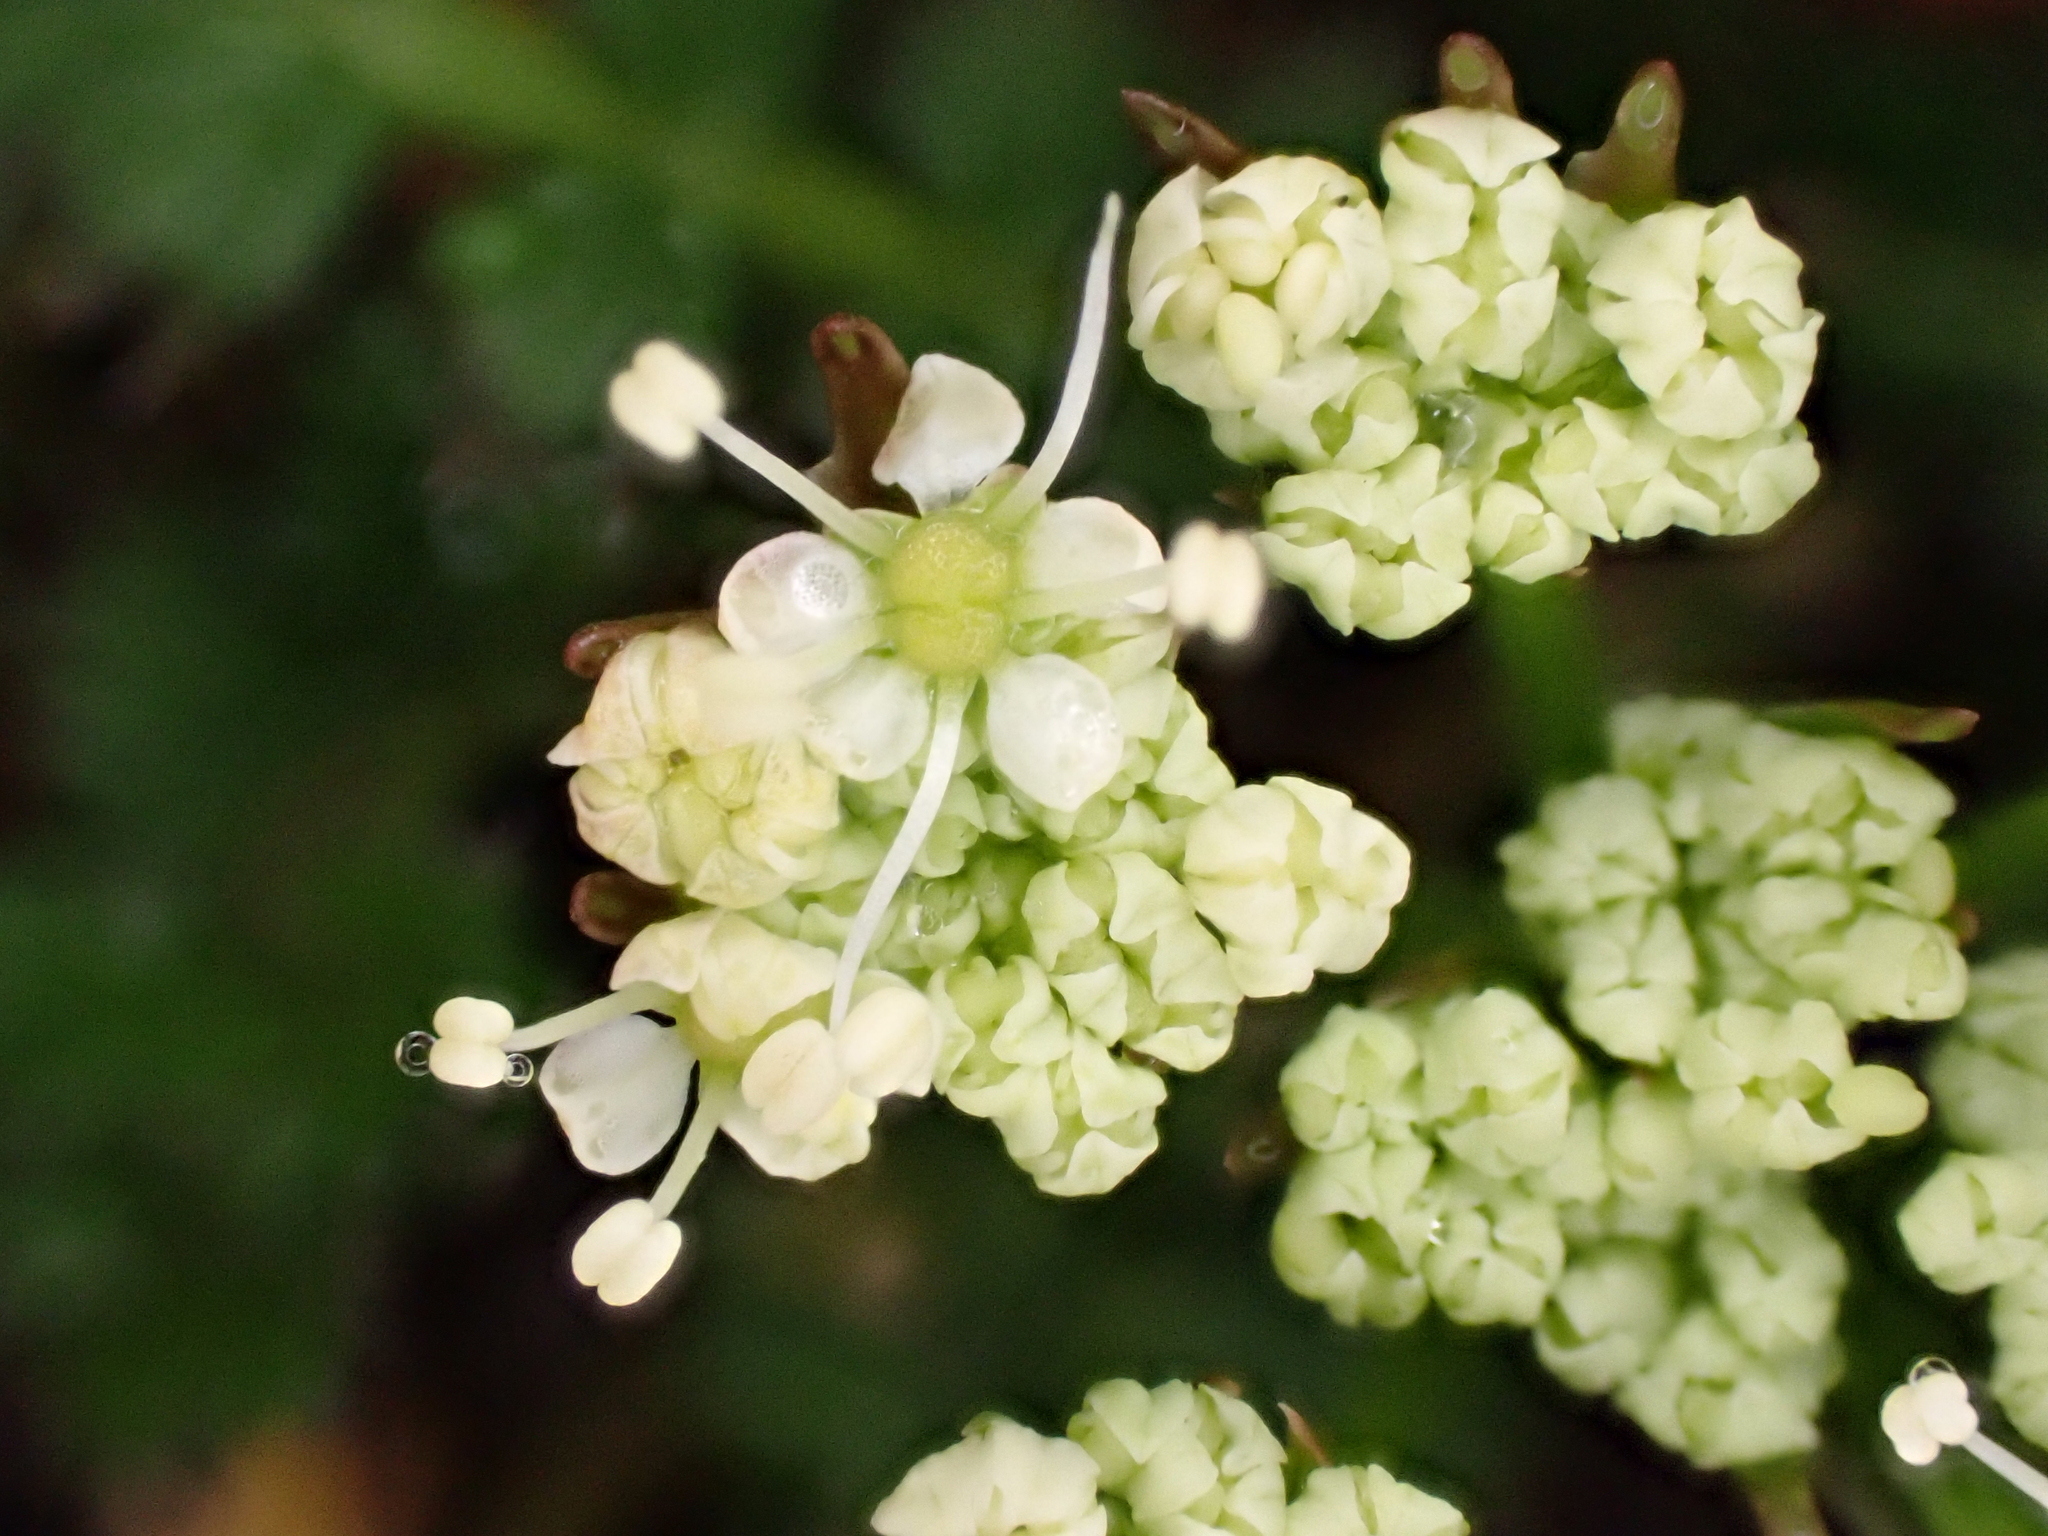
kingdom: Plantae
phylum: Tracheophyta
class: Magnoliopsida
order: Apiales
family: Apiaceae
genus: Anisotome
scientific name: Anisotome aromatica
